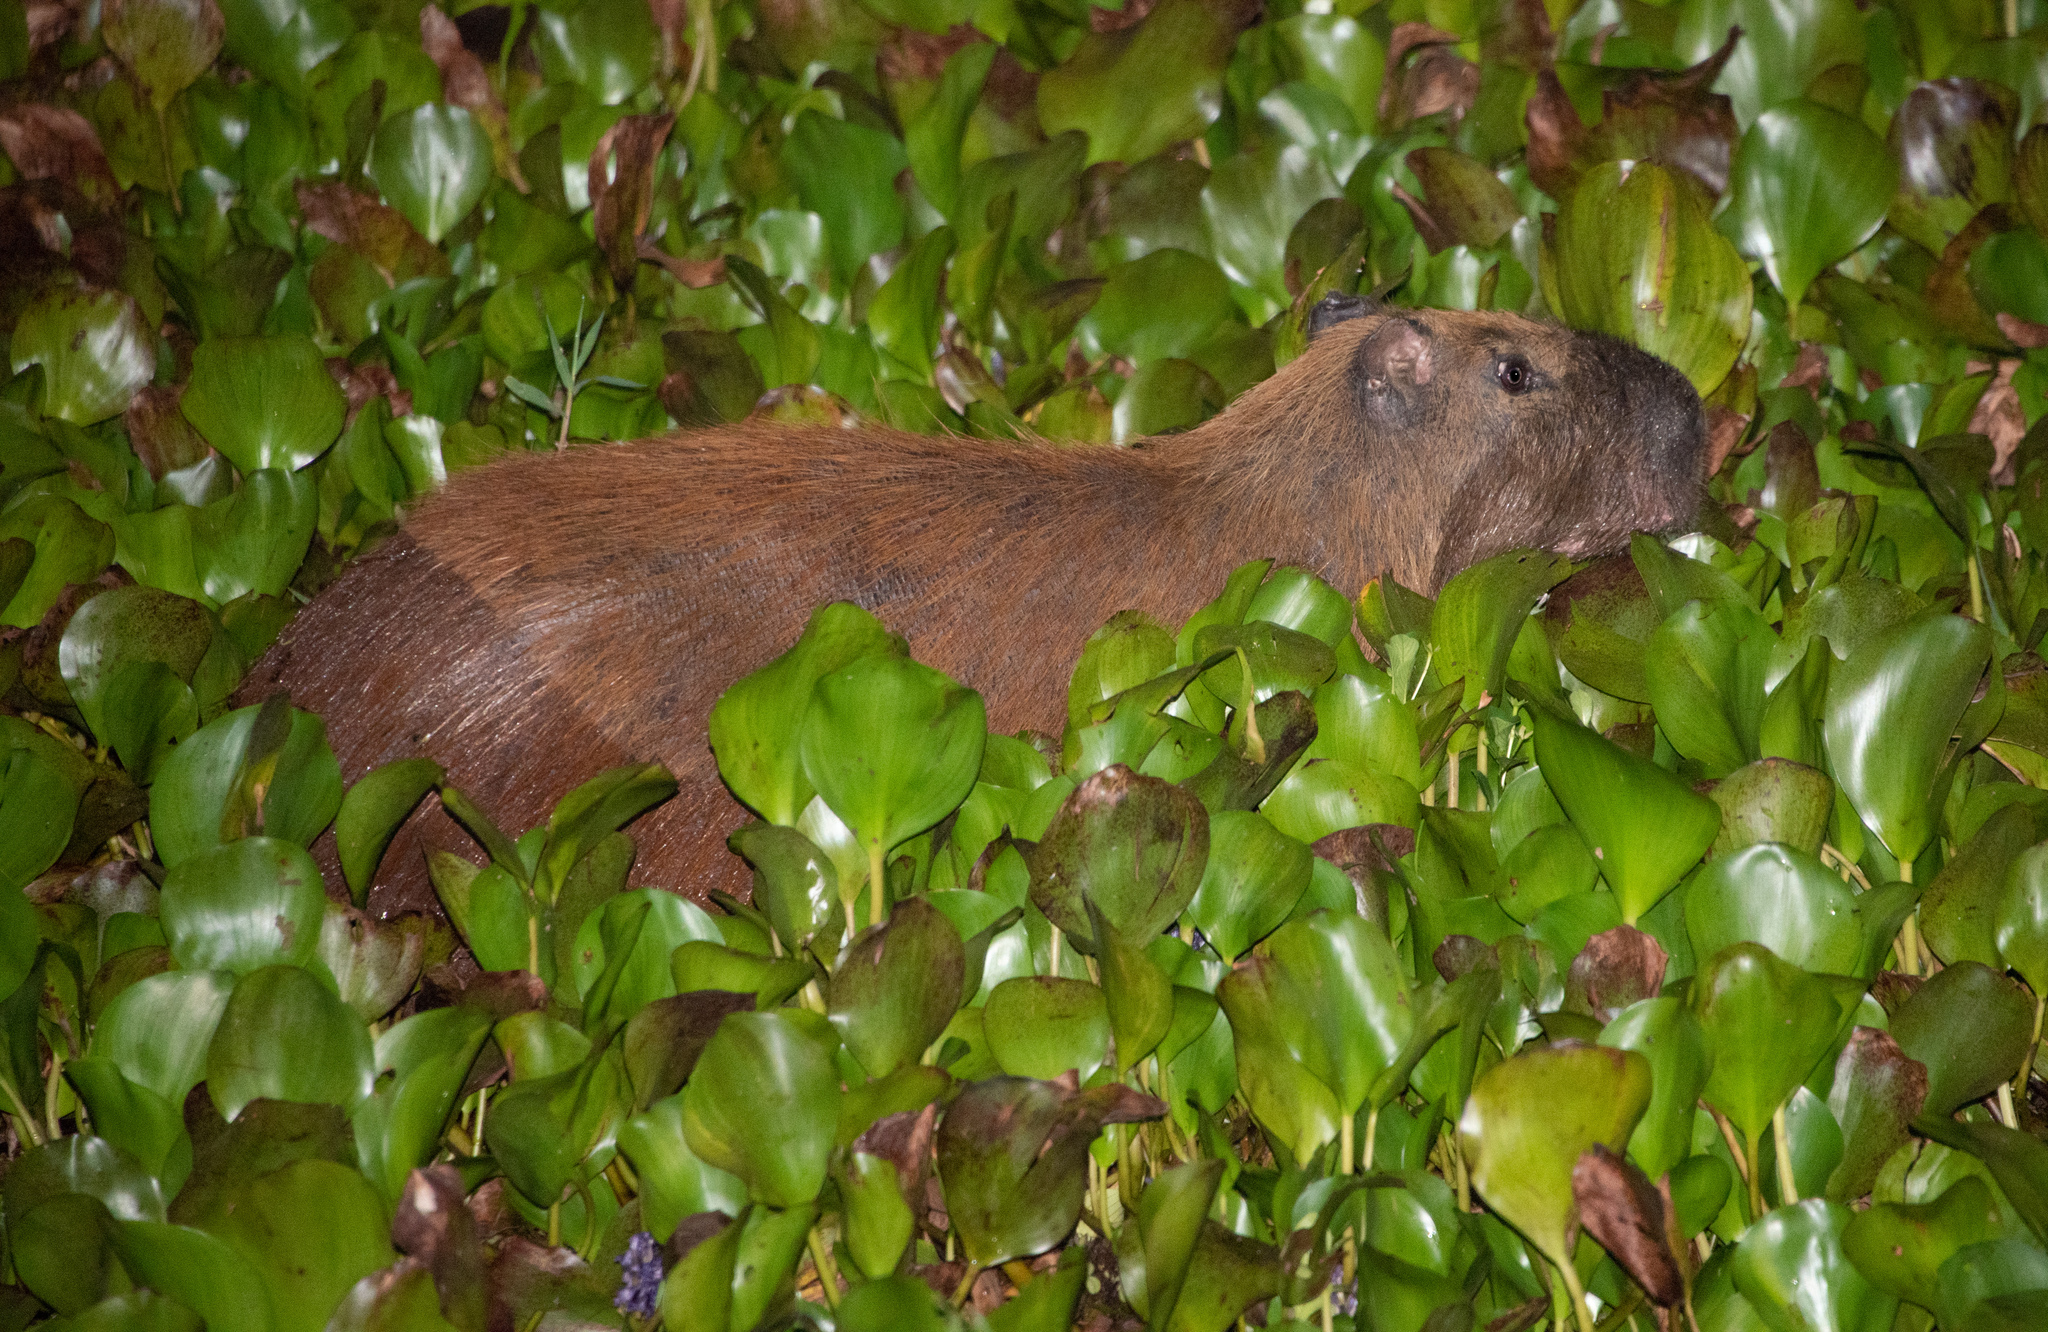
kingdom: Animalia
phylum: Chordata
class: Mammalia
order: Rodentia
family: Caviidae
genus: Hydrochoerus
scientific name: Hydrochoerus isthmius
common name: Lesser capybara
